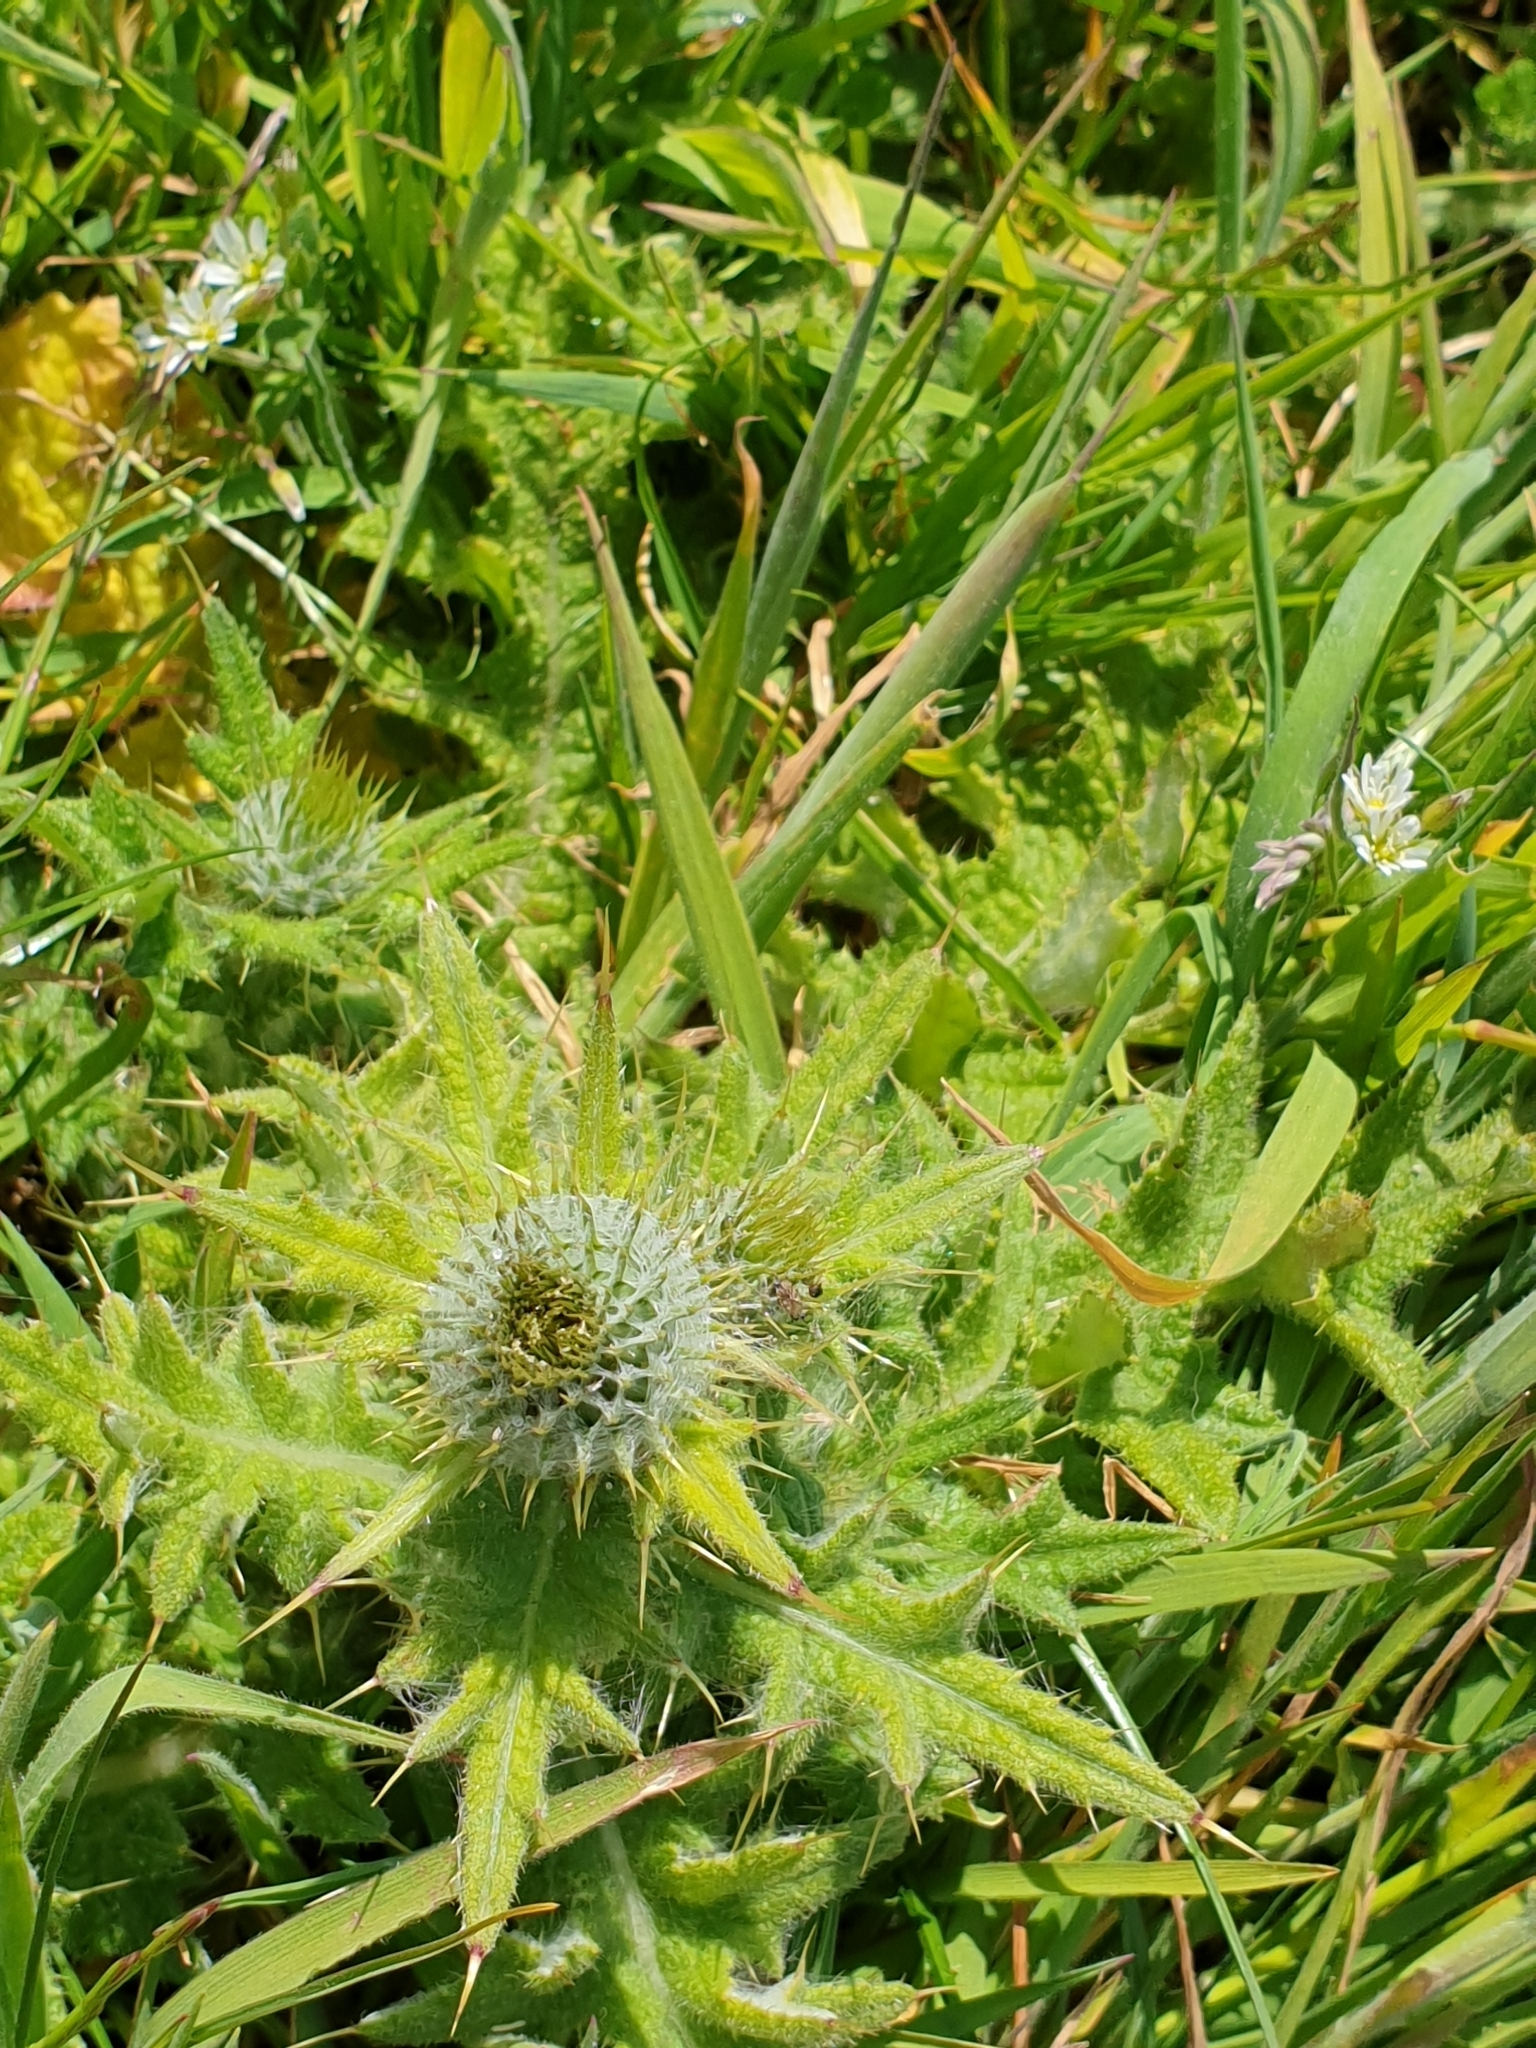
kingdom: Plantae
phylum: Tracheophyta
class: Magnoliopsida
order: Asterales
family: Asteraceae
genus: Cirsium
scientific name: Cirsium vulgare
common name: Bull thistle
